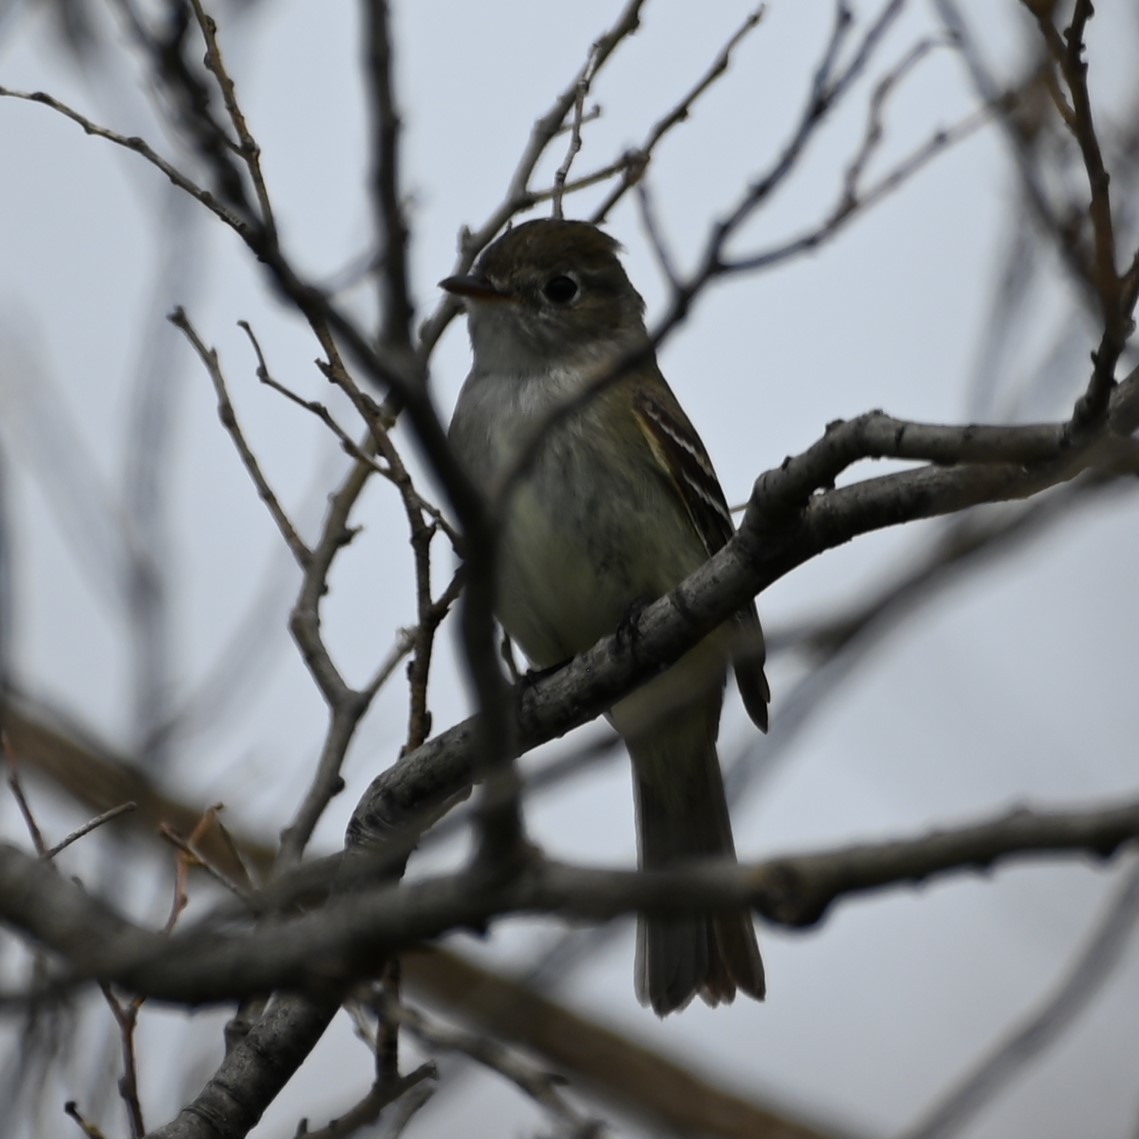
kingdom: Animalia
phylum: Chordata
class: Aves
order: Passeriformes
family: Tyrannidae
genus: Empidonax
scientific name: Empidonax minimus
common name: Least flycatcher
